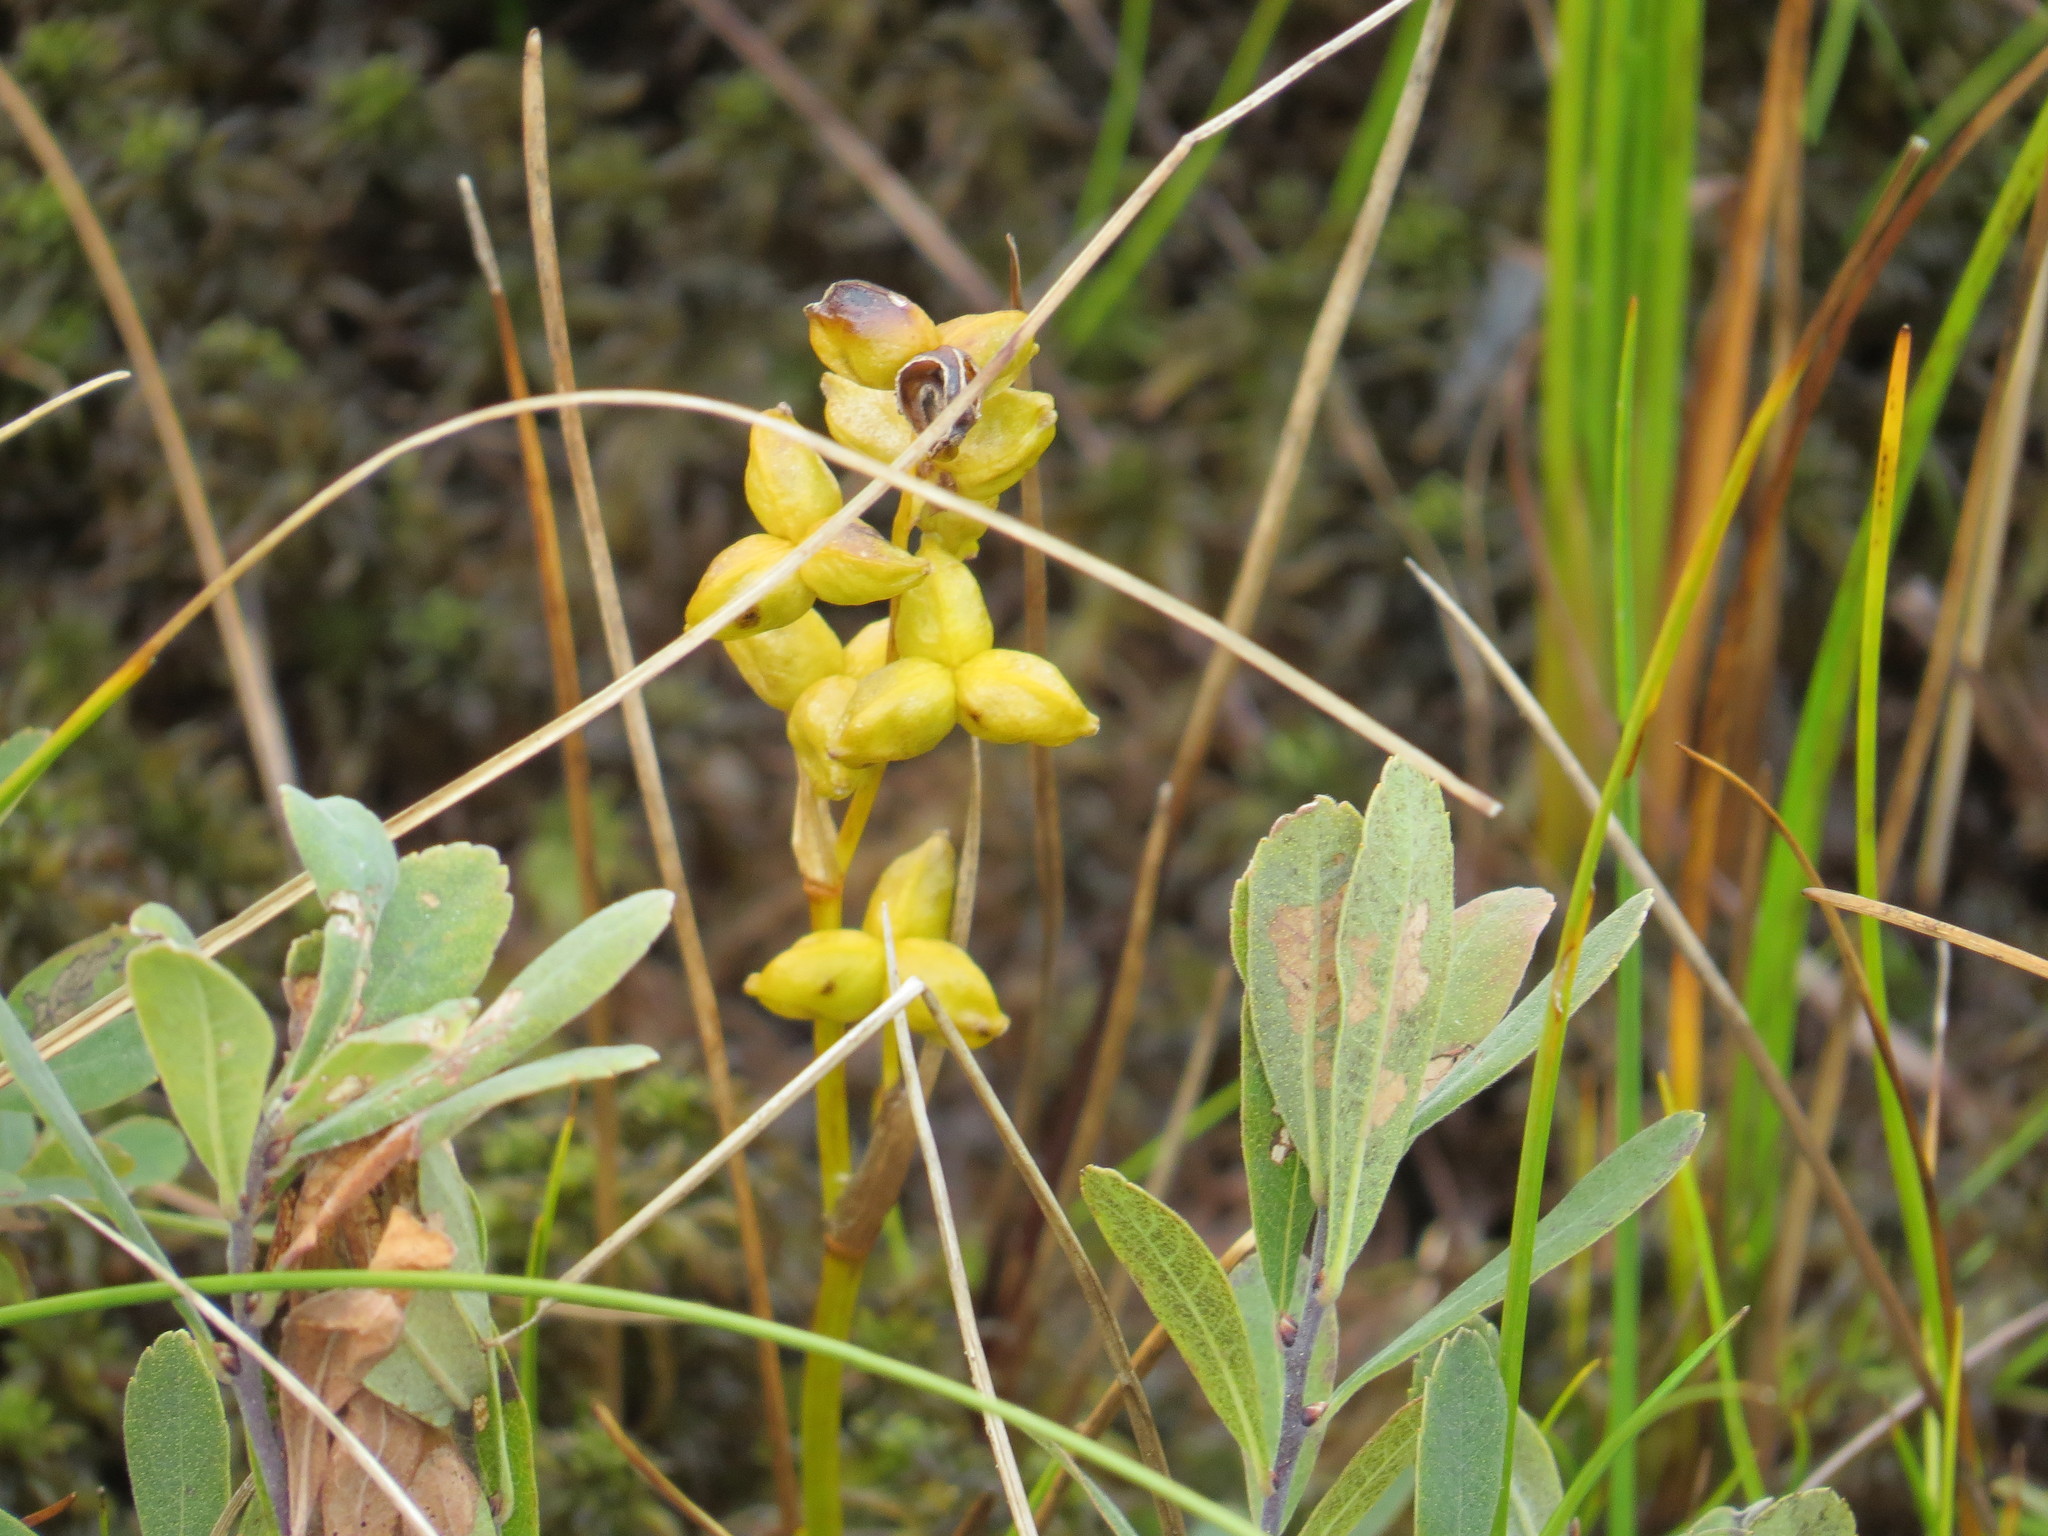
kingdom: Plantae
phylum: Tracheophyta
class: Liliopsida
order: Alismatales
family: Scheuchzeriaceae
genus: Scheuchzeria
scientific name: Scheuchzeria palustris
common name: Rannoch-rush
